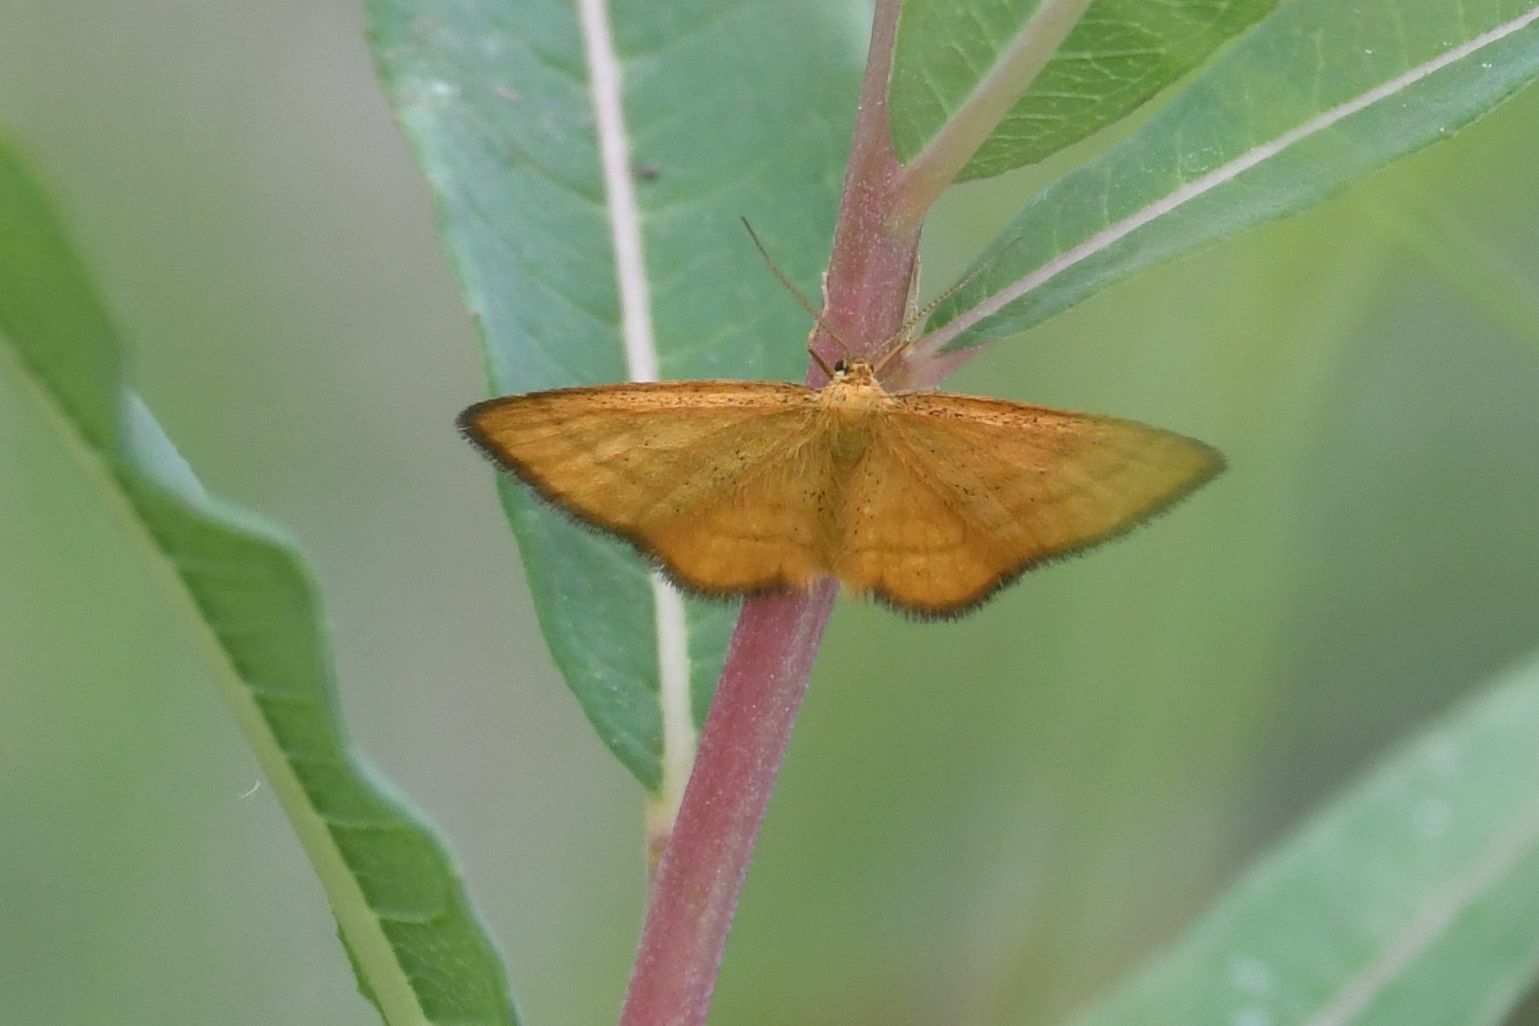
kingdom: Animalia
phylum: Arthropoda
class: Insecta
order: Lepidoptera
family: Geometridae
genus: Idaea
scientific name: Idaea flaveolaria
